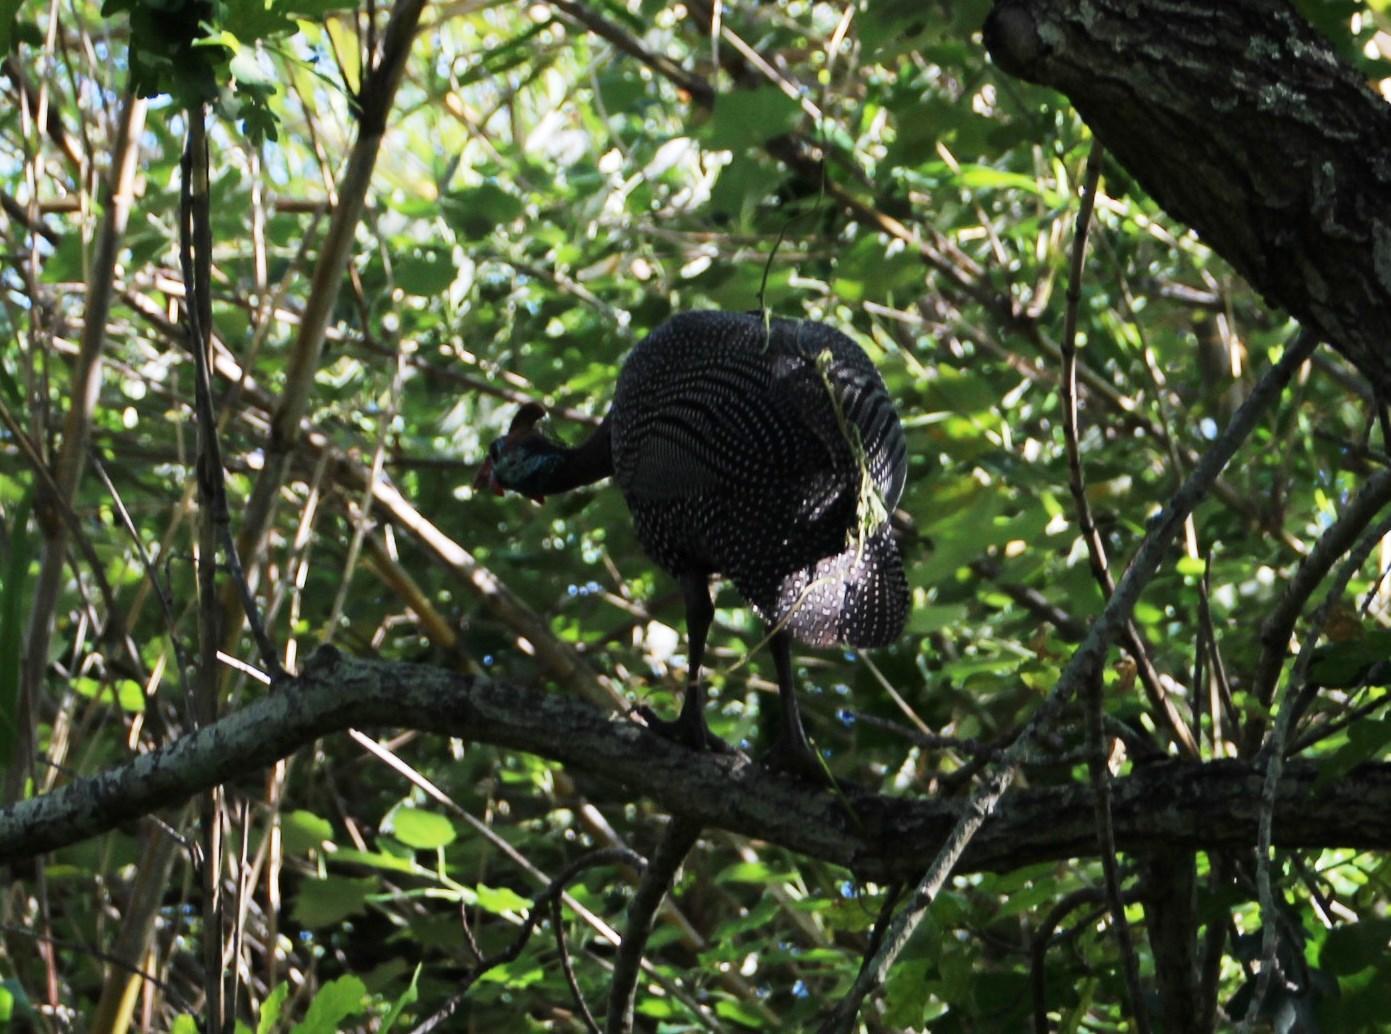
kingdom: Animalia
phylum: Chordata
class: Aves
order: Galliformes
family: Numididae
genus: Numida
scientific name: Numida meleagris
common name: Helmeted guineafowl
